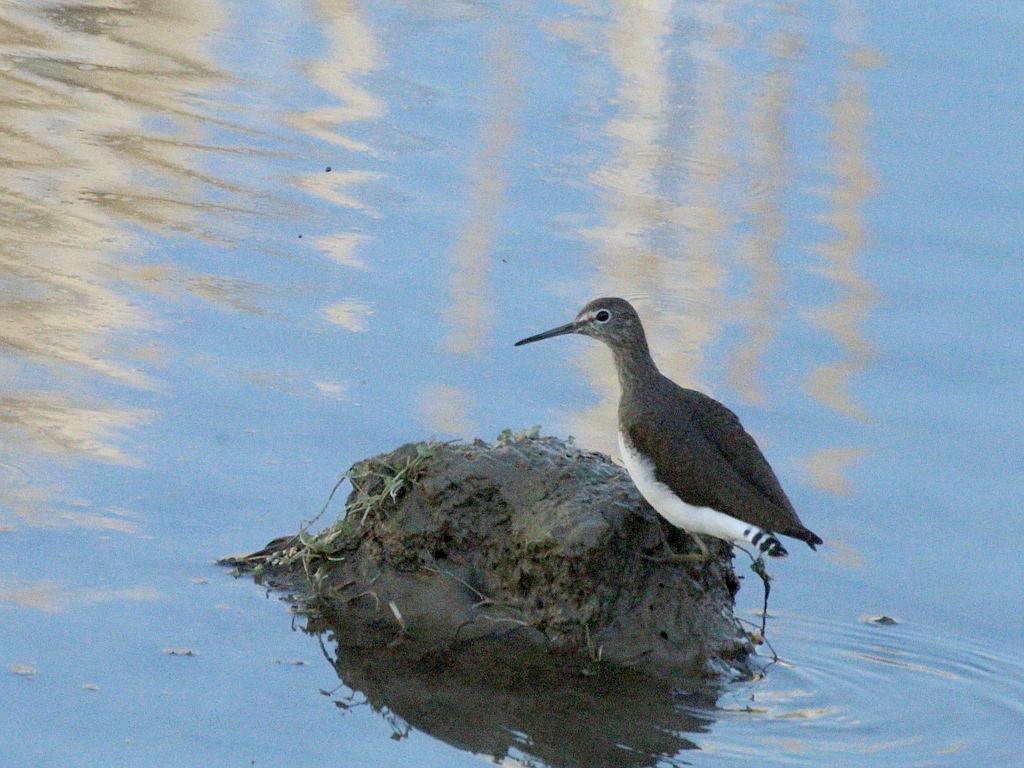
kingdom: Animalia
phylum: Chordata
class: Aves
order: Charadriiformes
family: Scolopacidae
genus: Tringa
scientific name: Tringa ochropus
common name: Green sandpiper
